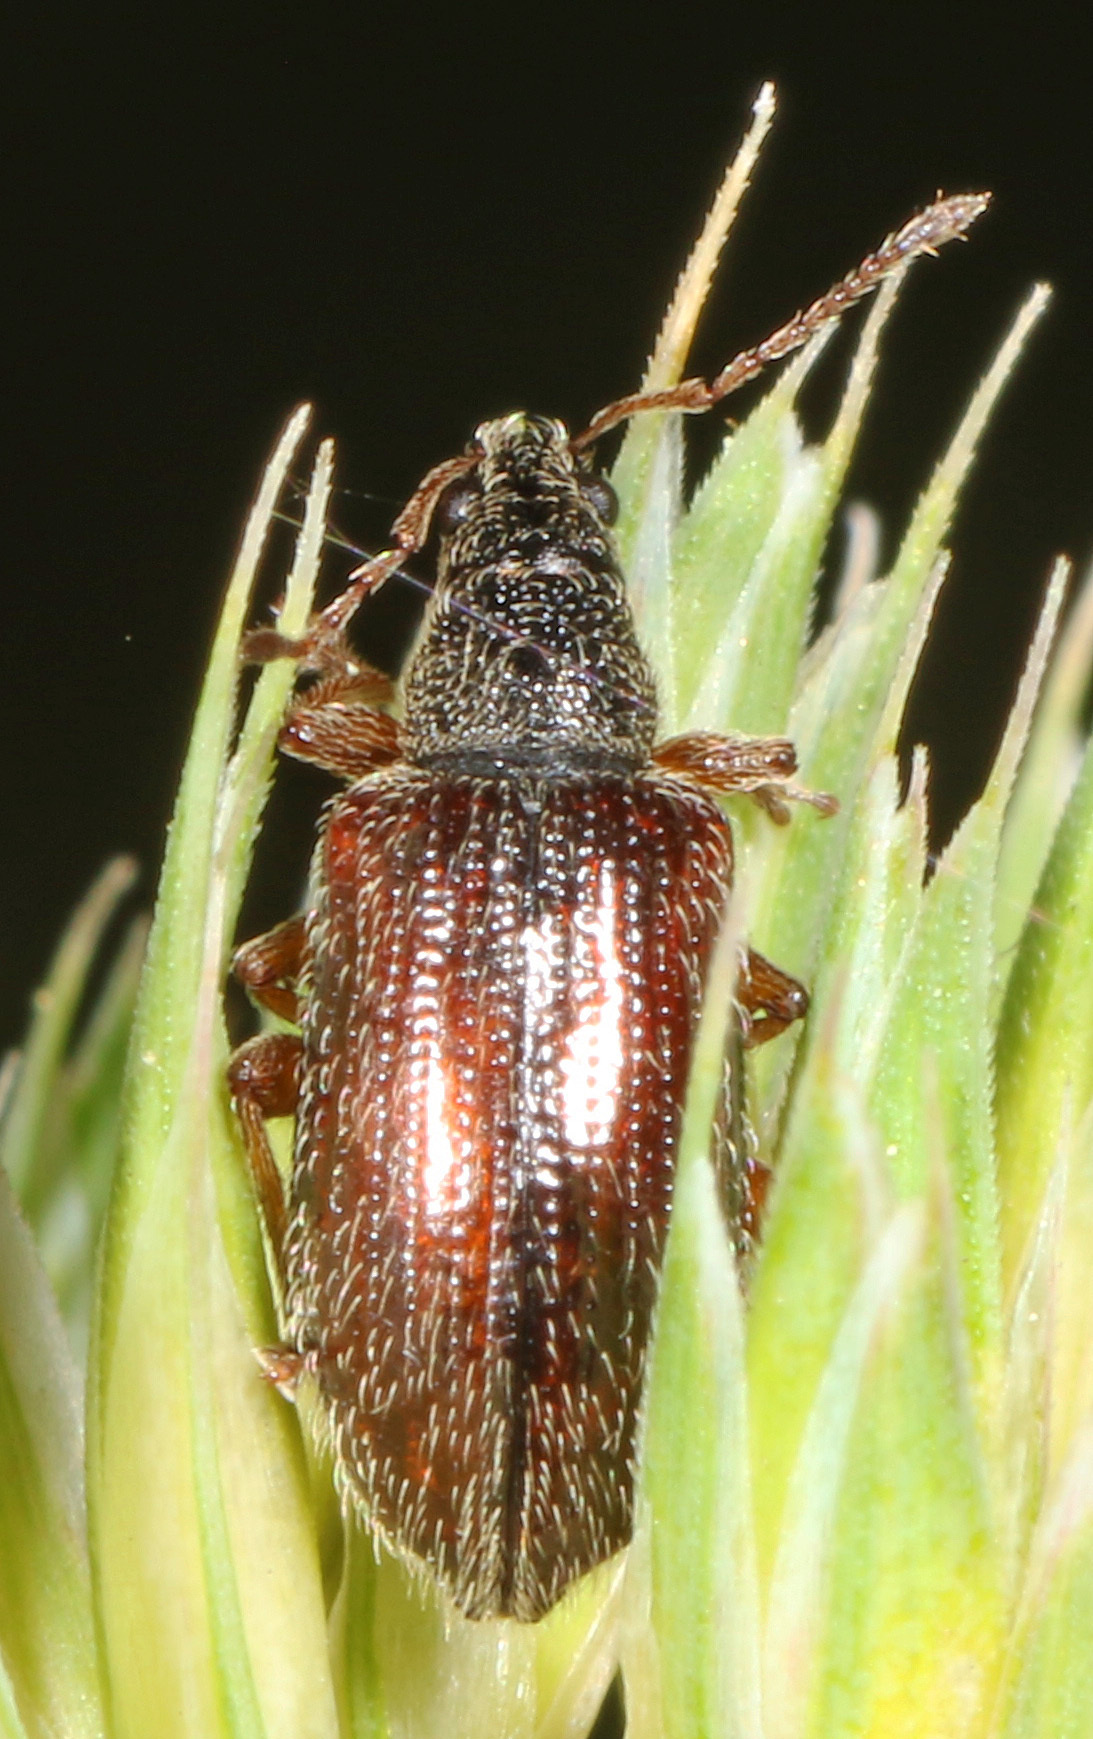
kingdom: Animalia
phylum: Arthropoda
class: Insecta
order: Coleoptera
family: Curculionidae
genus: Phyllobius
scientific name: Phyllobius oblongus
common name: Brown leaf weevil
